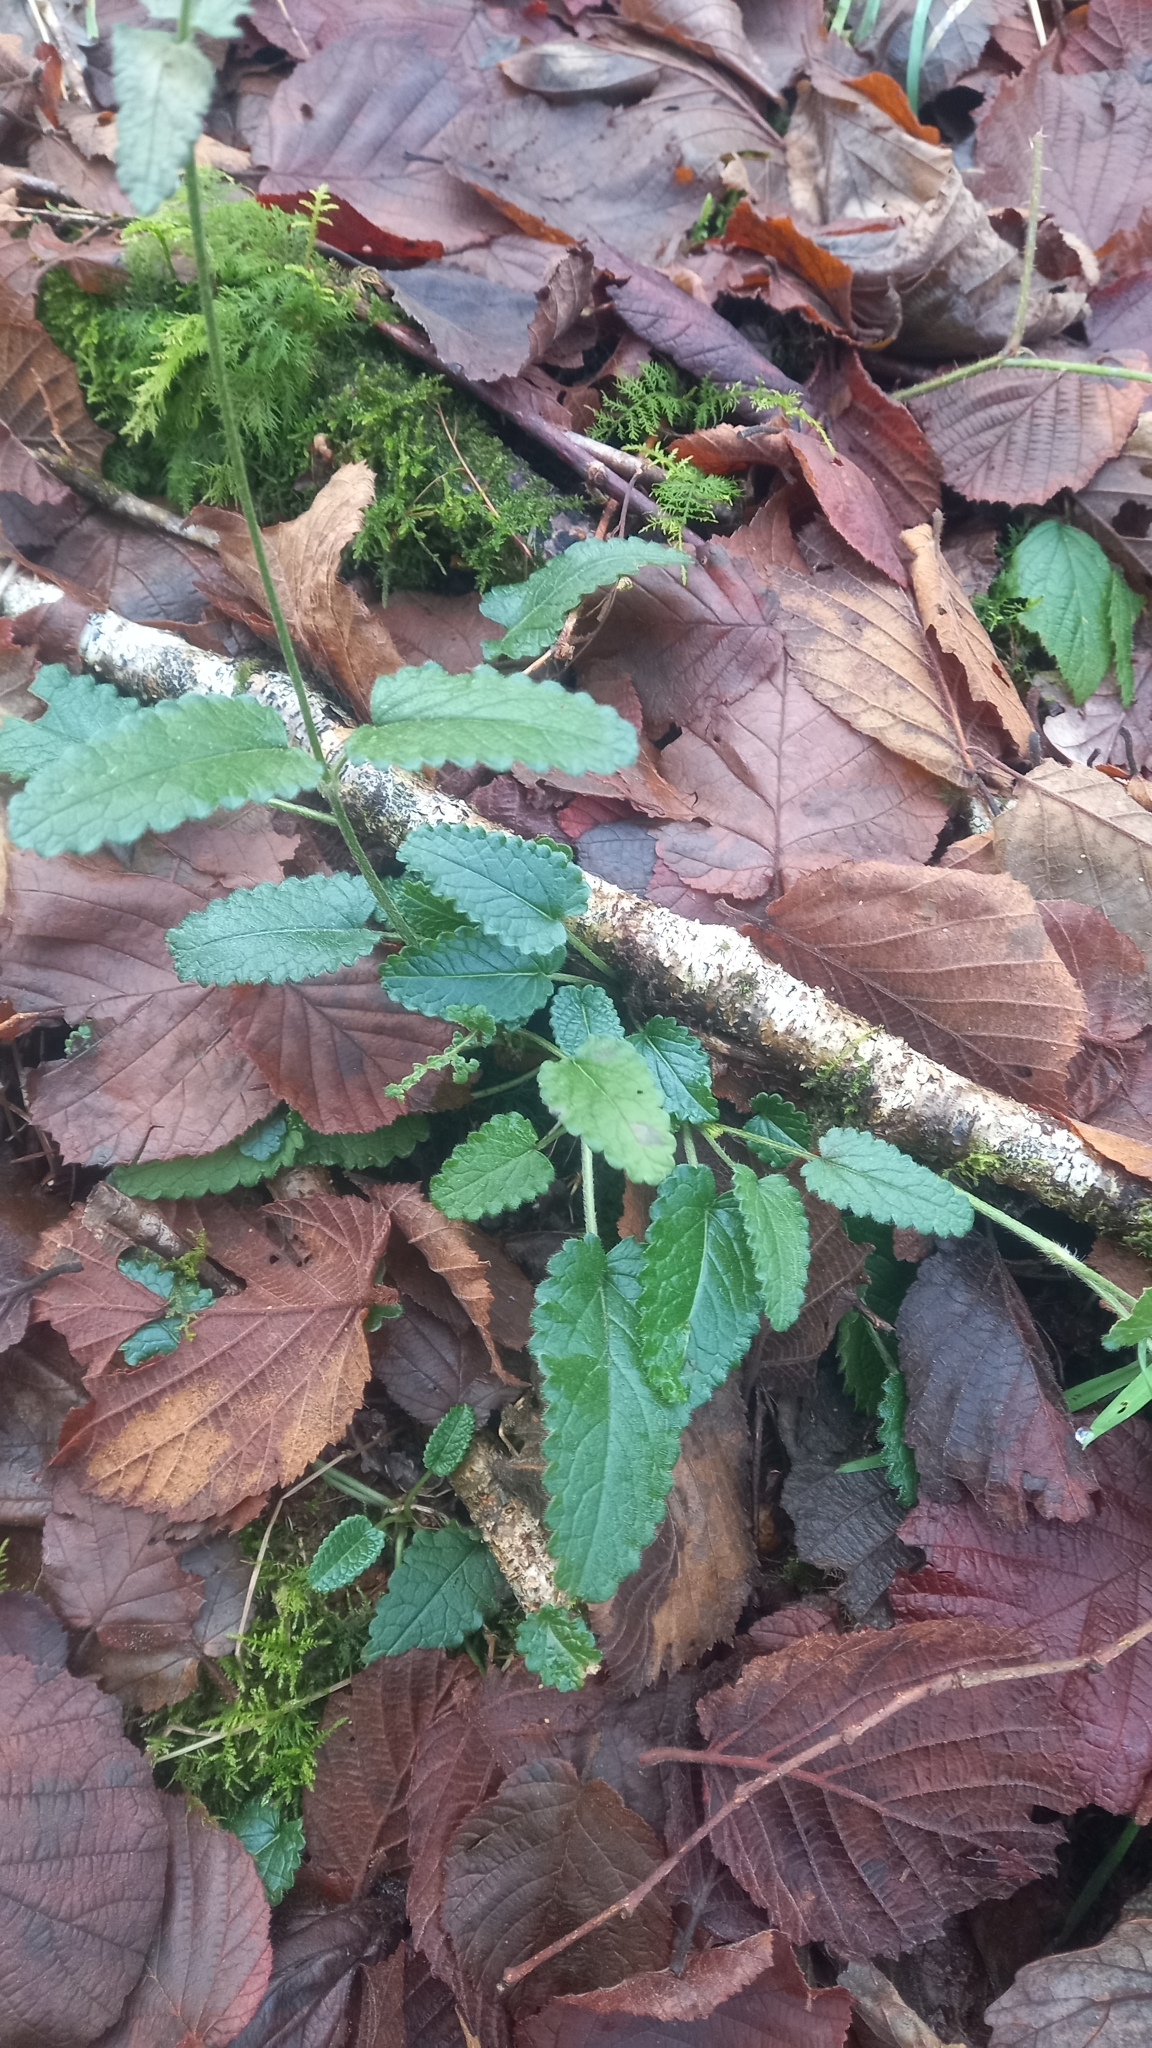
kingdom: Plantae
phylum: Tracheophyta
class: Magnoliopsida
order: Lamiales
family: Lamiaceae
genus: Betonica
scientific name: Betonica officinalis
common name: Bishop's-wort
